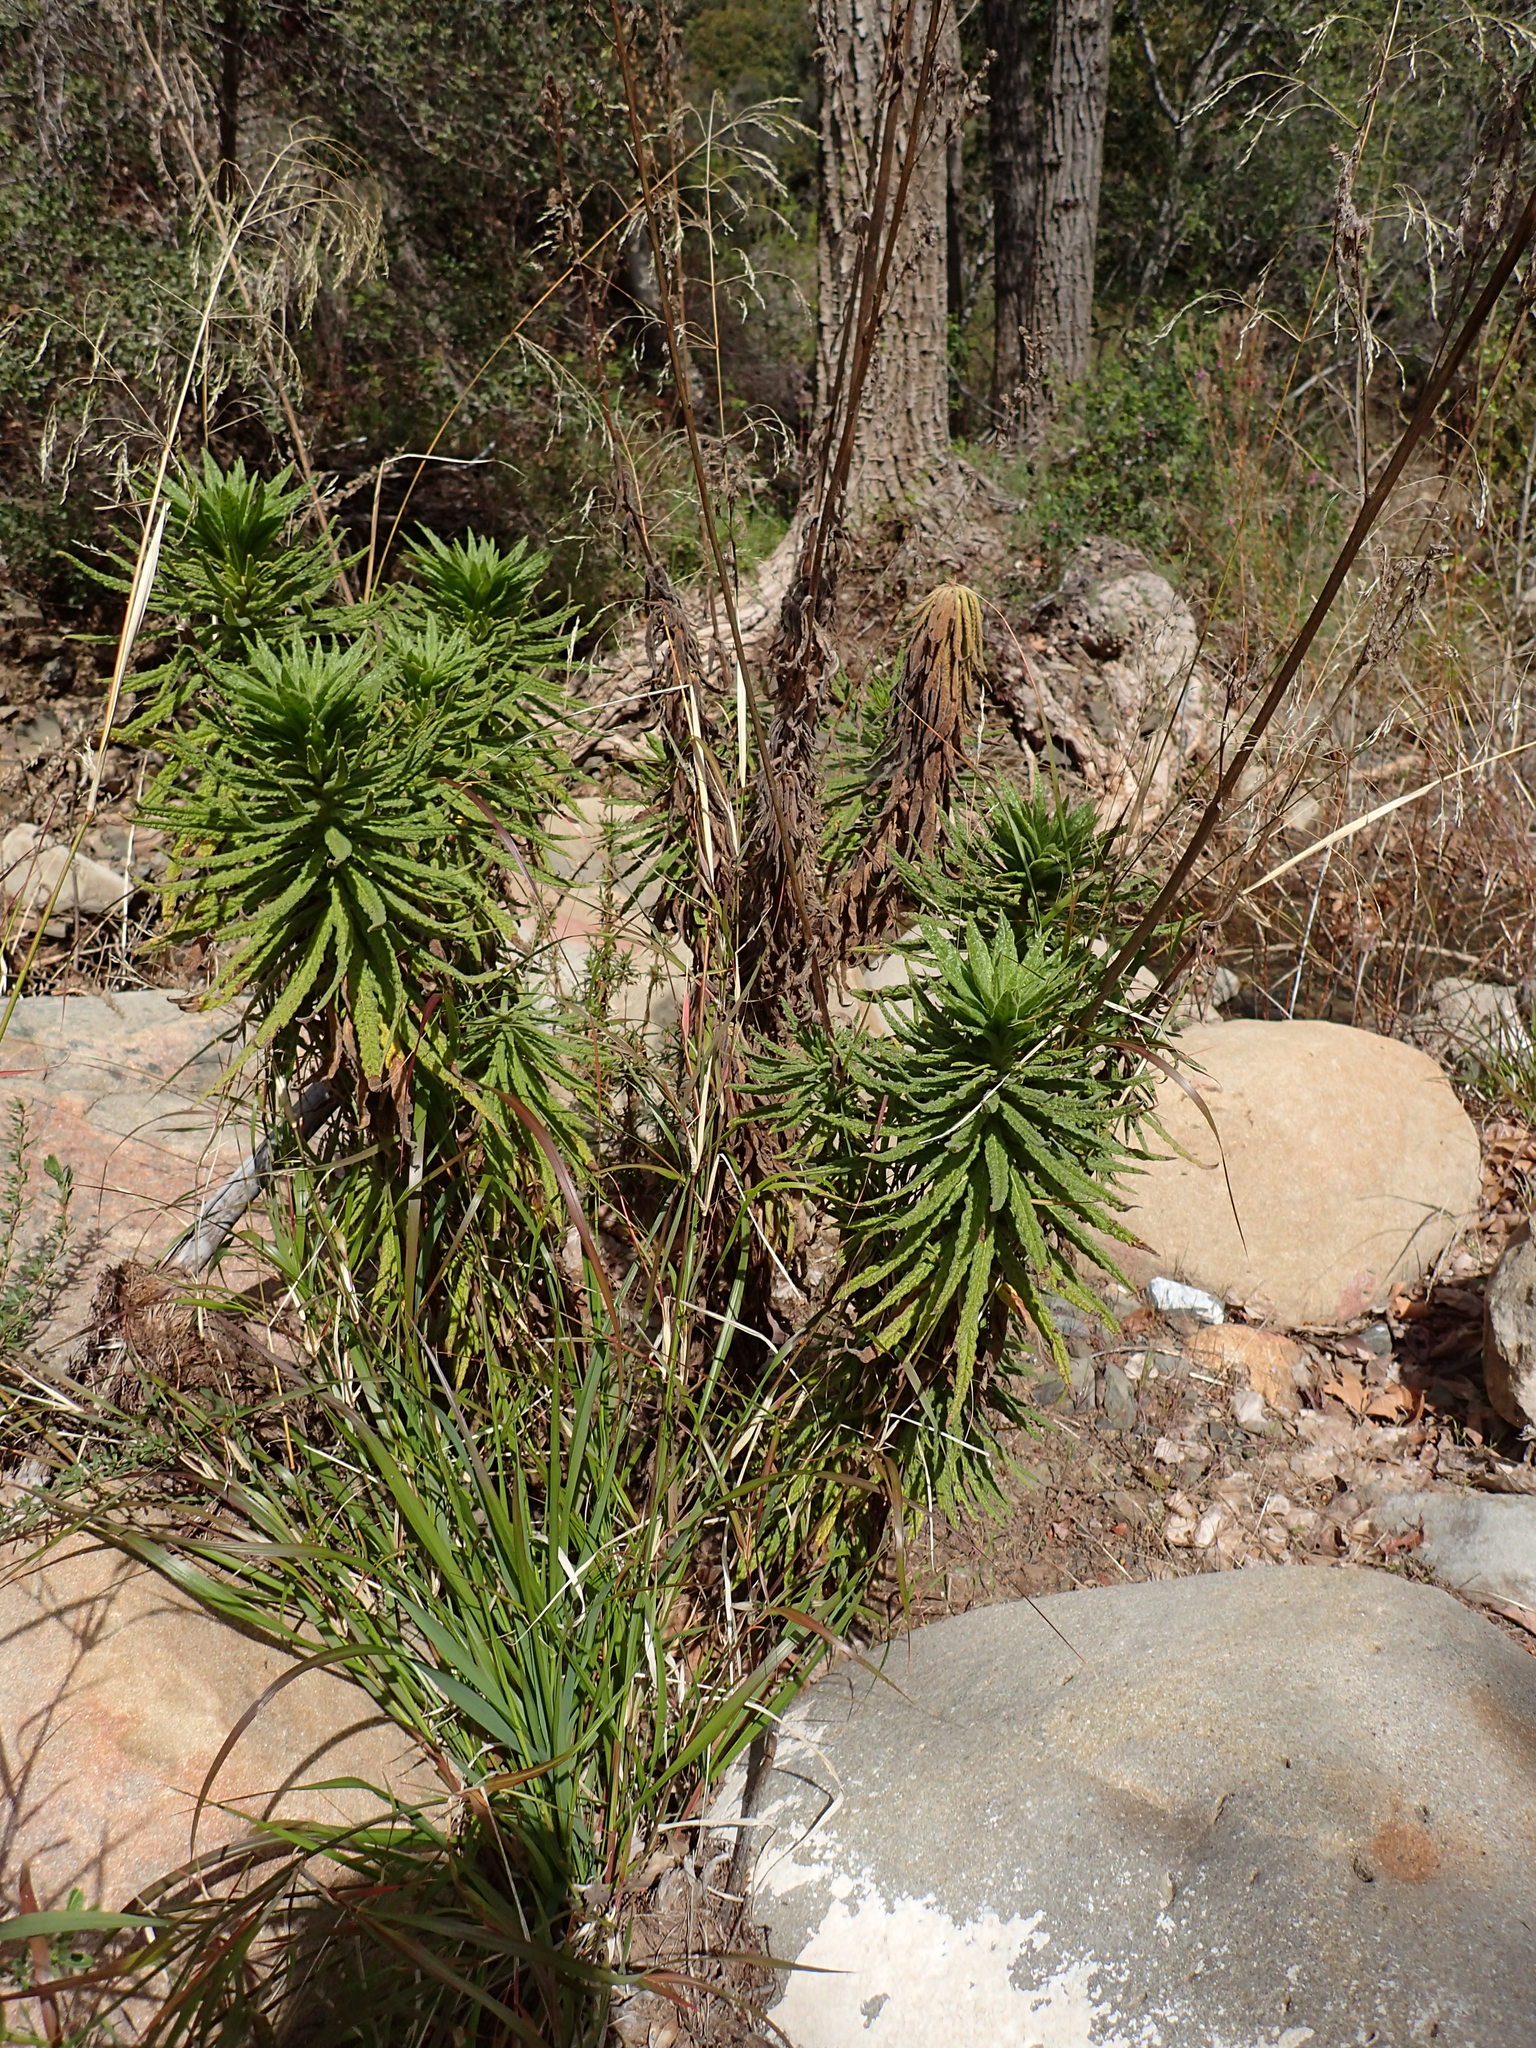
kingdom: Plantae
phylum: Tracheophyta
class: Magnoliopsida
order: Boraginales
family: Namaceae
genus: Turricula
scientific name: Turricula parryi
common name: Poodle-dog-bush
